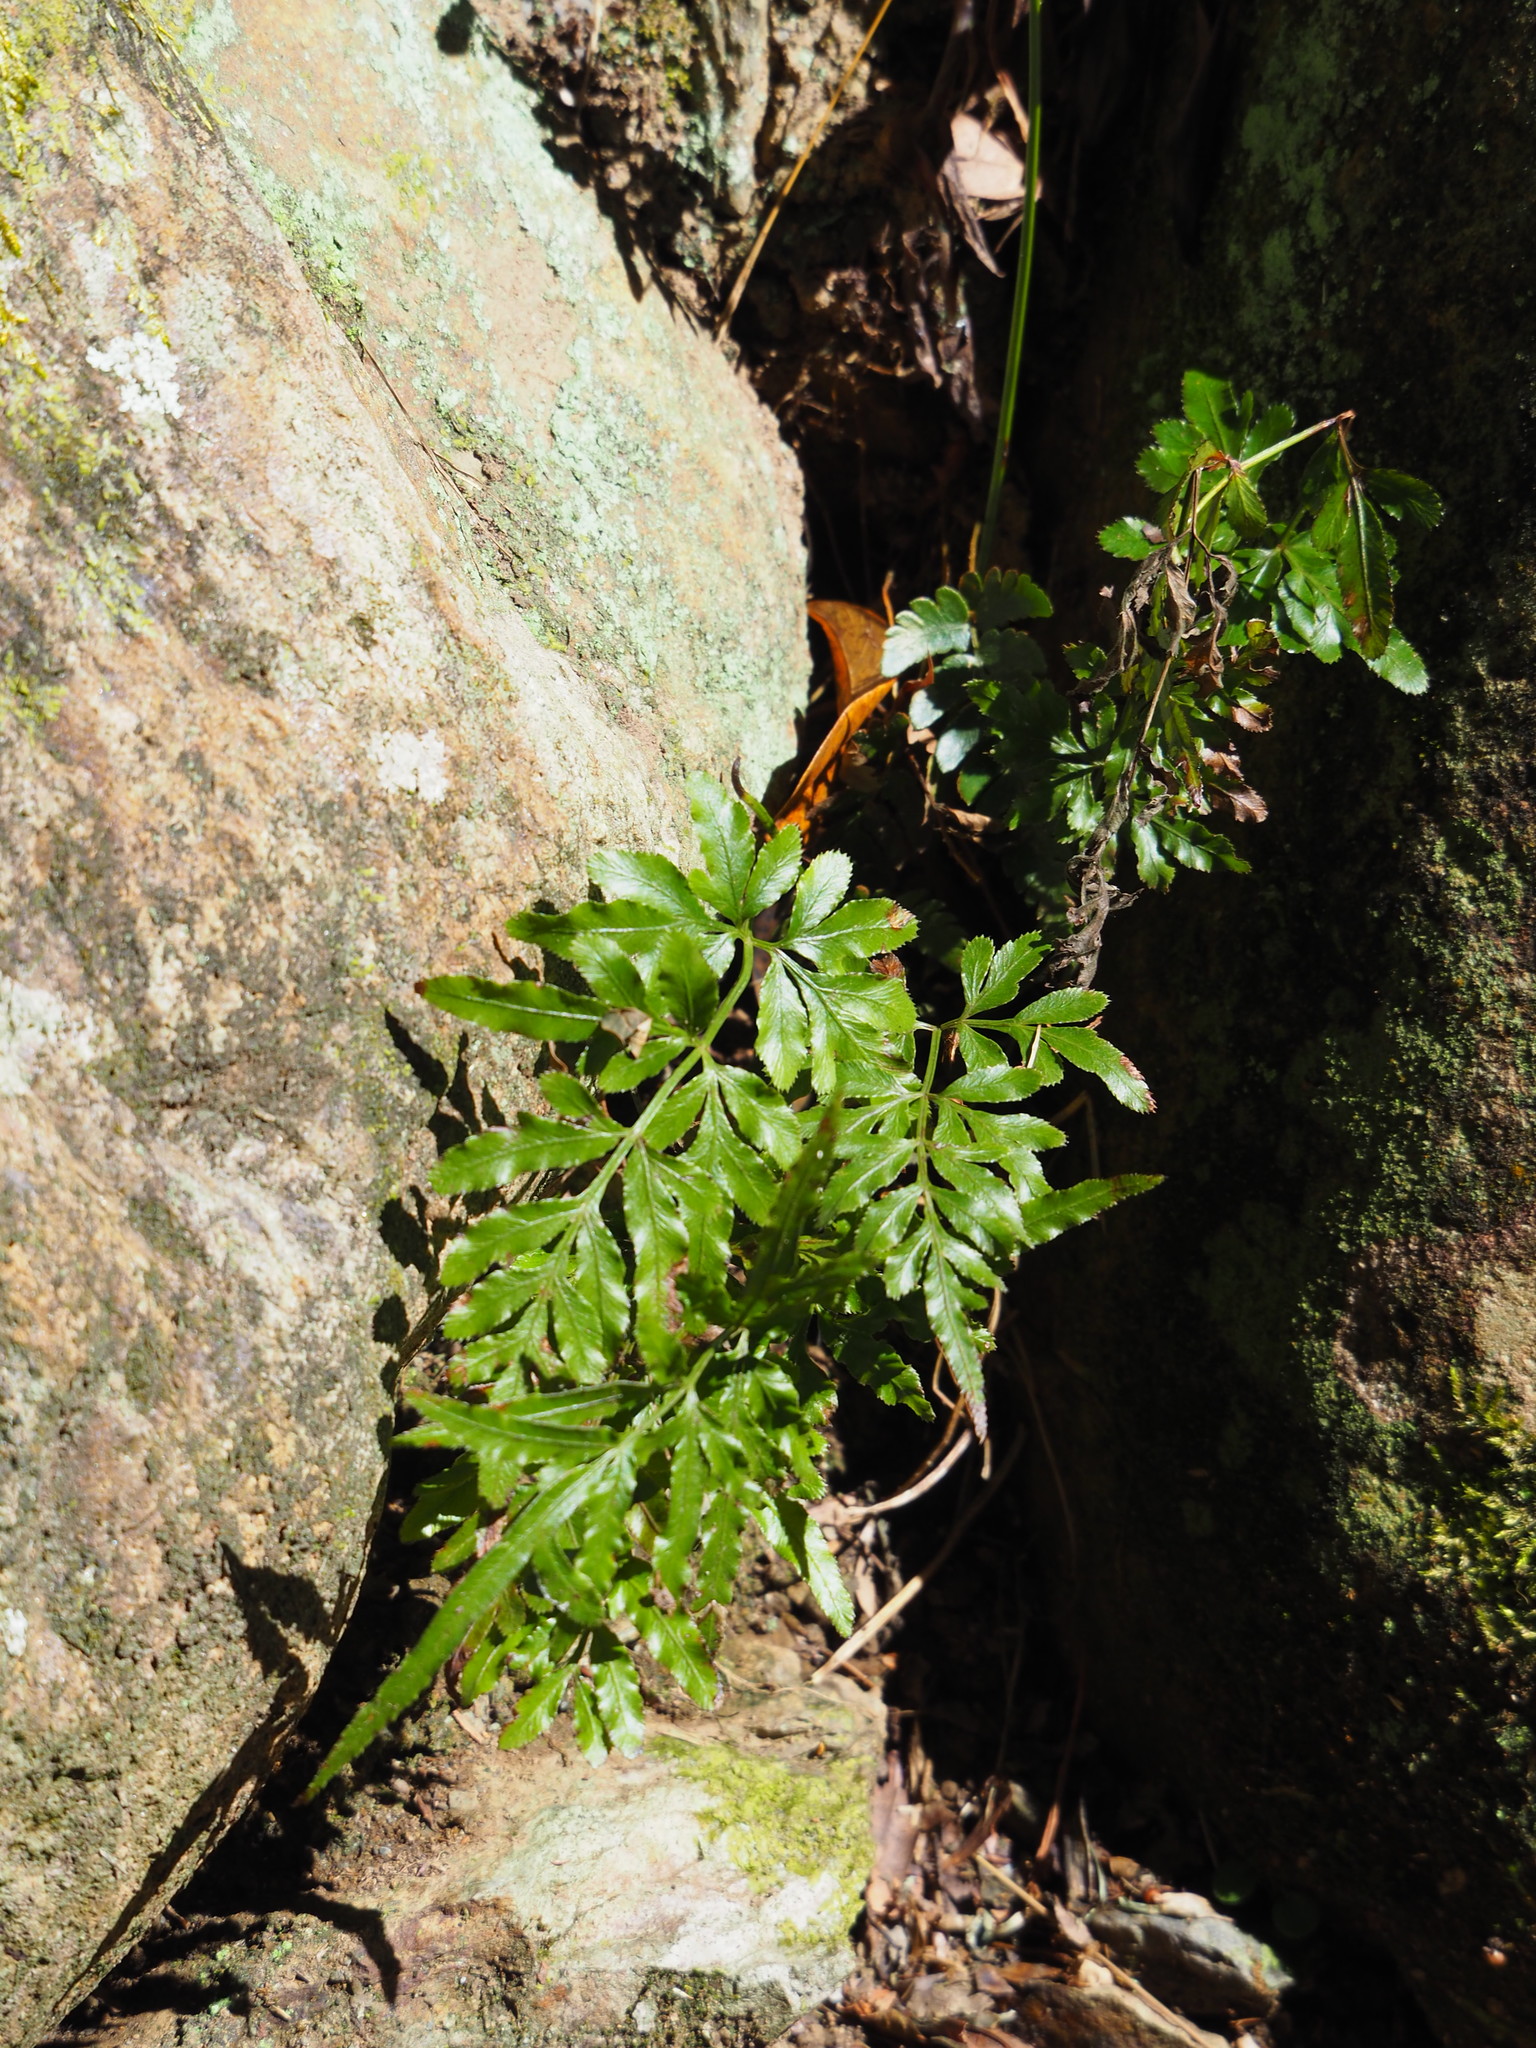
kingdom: Plantae
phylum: Tracheophyta
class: Polypodiopsida
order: Polypodiales
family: Pteridaceae
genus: Pteris
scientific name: Pteris ensiformis
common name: Sword brake
